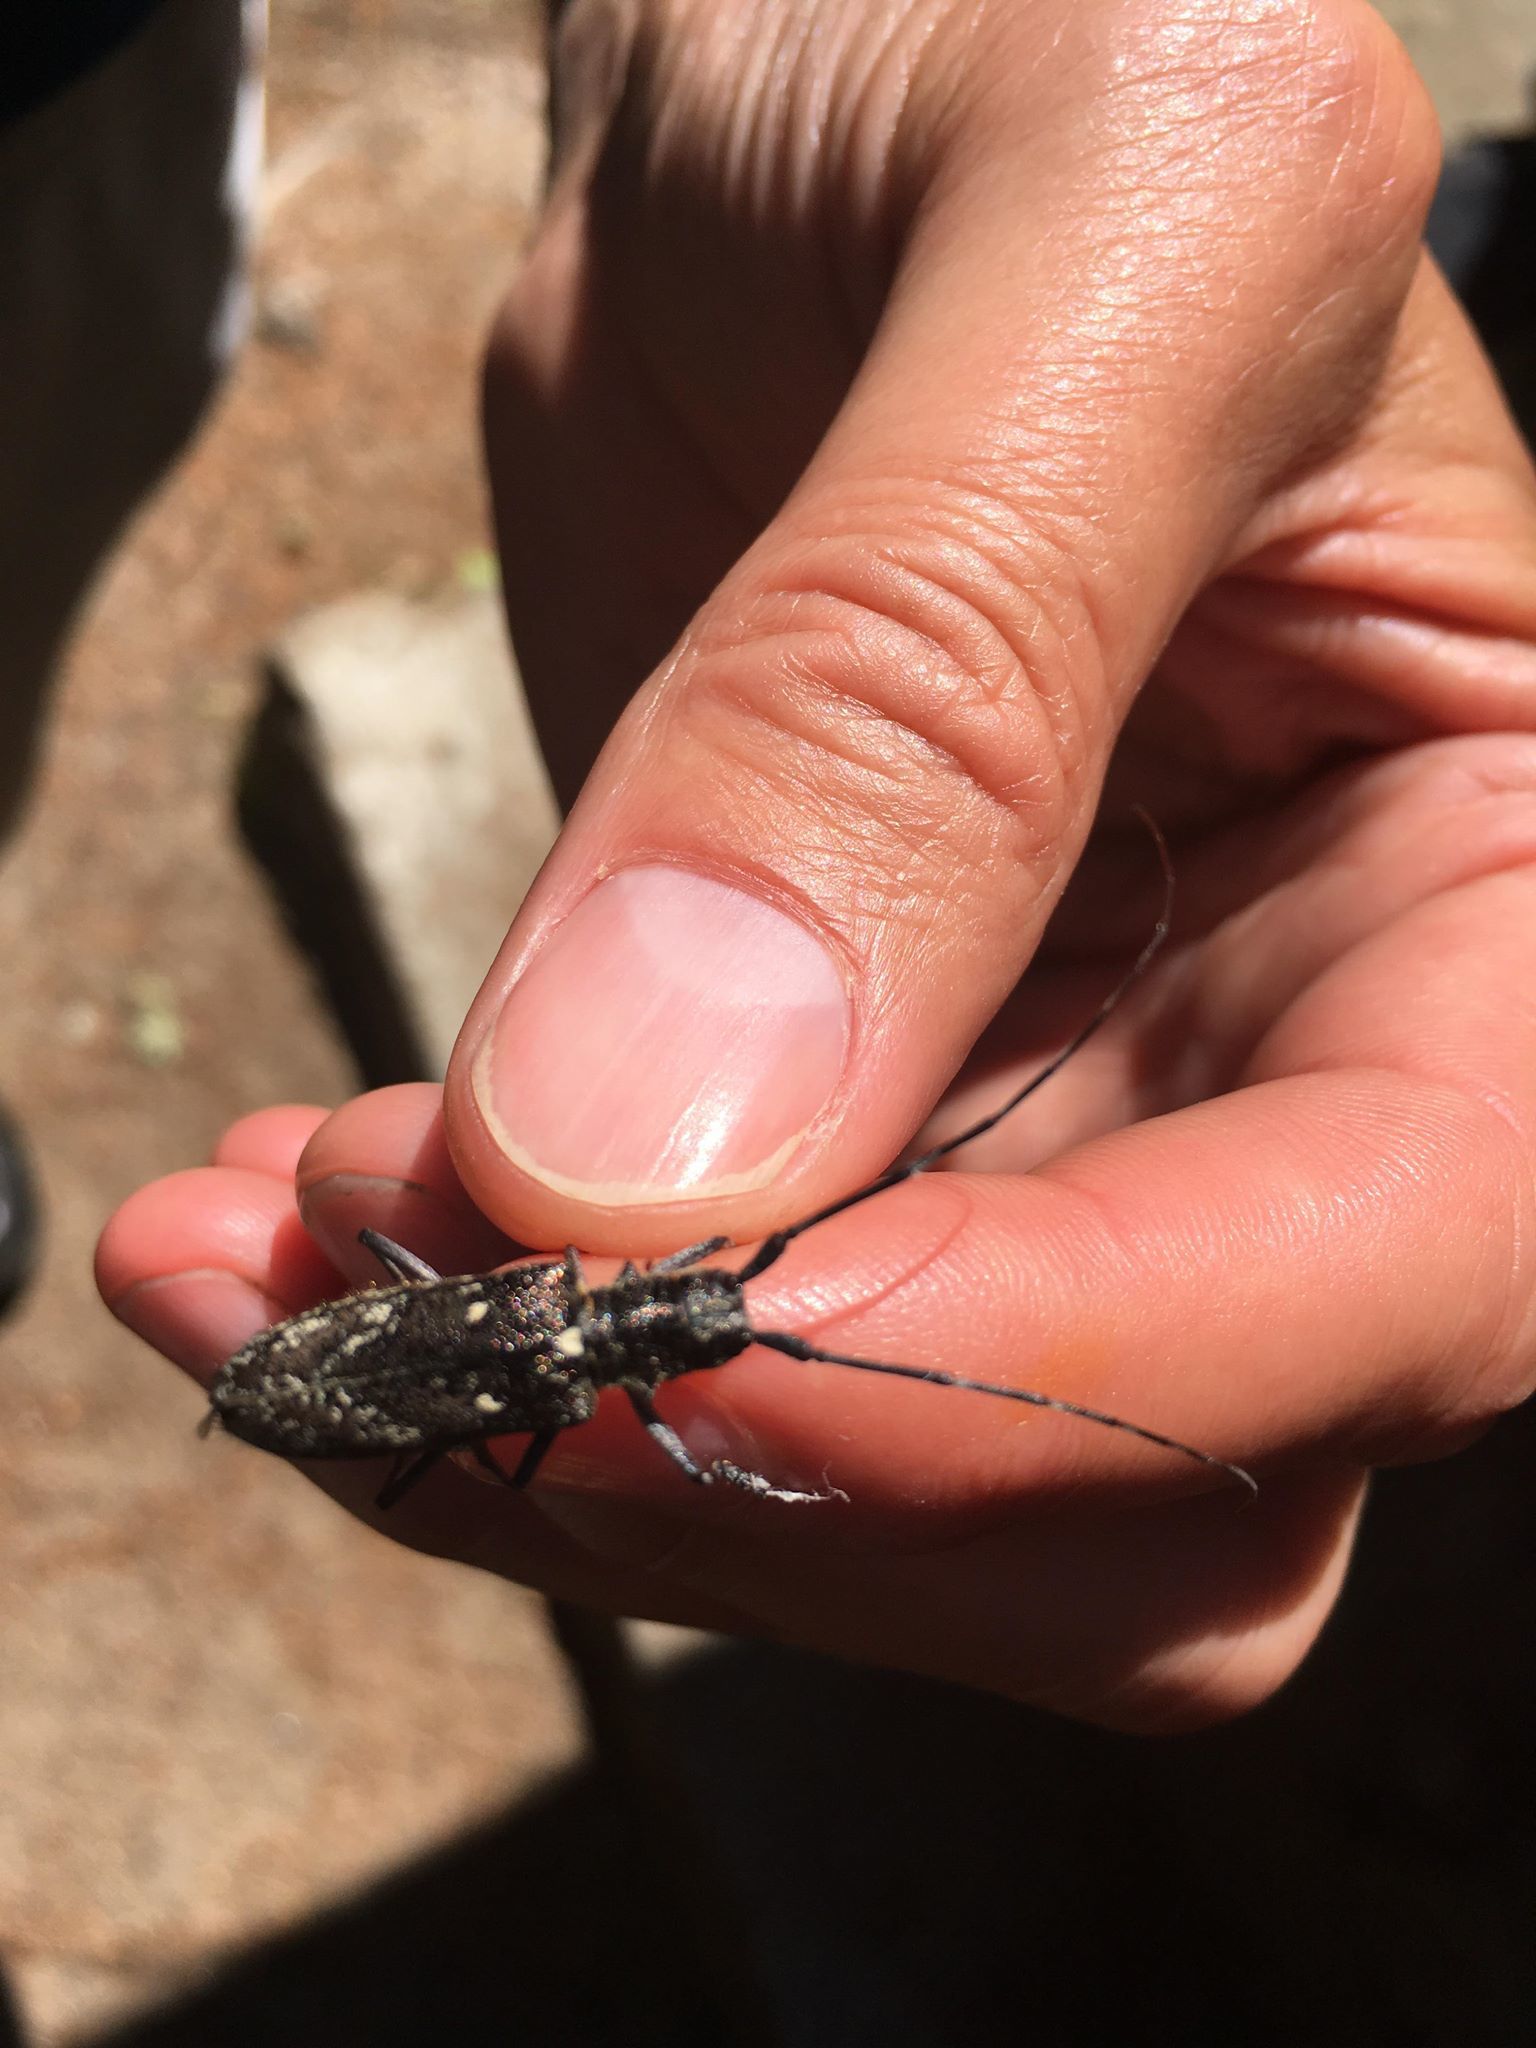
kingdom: Animalia
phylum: Arthropoda
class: Insecta
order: Coleoptera
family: Cerambycidae
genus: Monochamus
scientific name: Monochamus scutellatus
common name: White-spotted sawyer beetle
